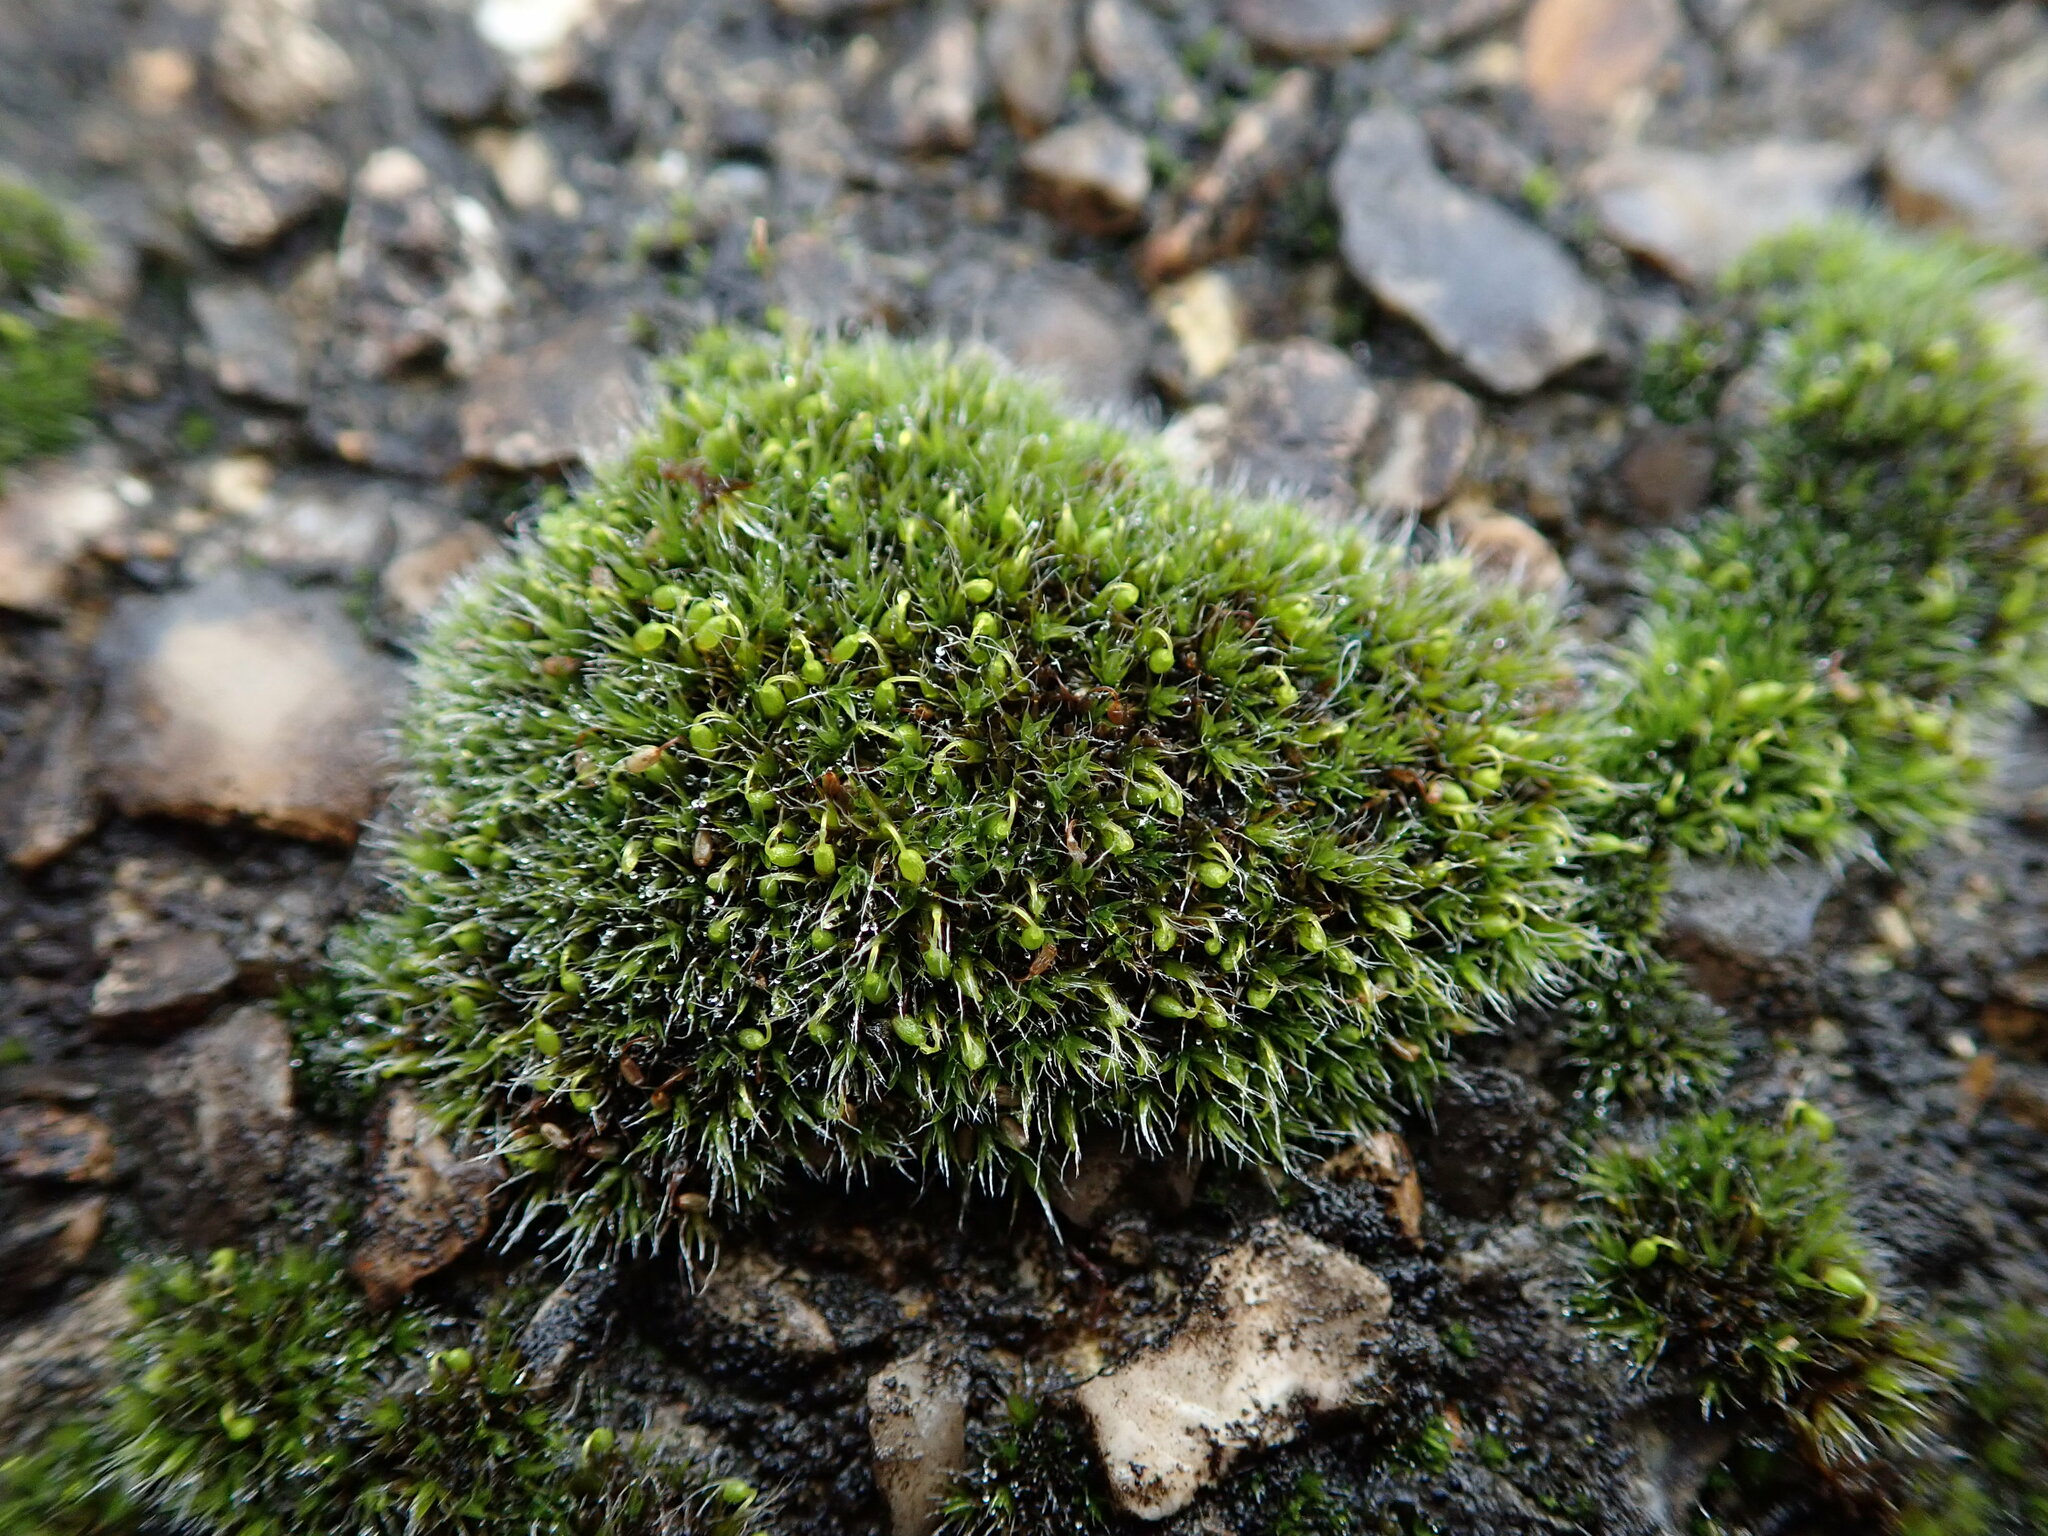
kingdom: Plantae
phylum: Bryophyta
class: Bryopsida
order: Grimmiales
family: Grimmiaceae
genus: Grimmia
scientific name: Grimmia pulvinata
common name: Grey-cushioned grimmia
